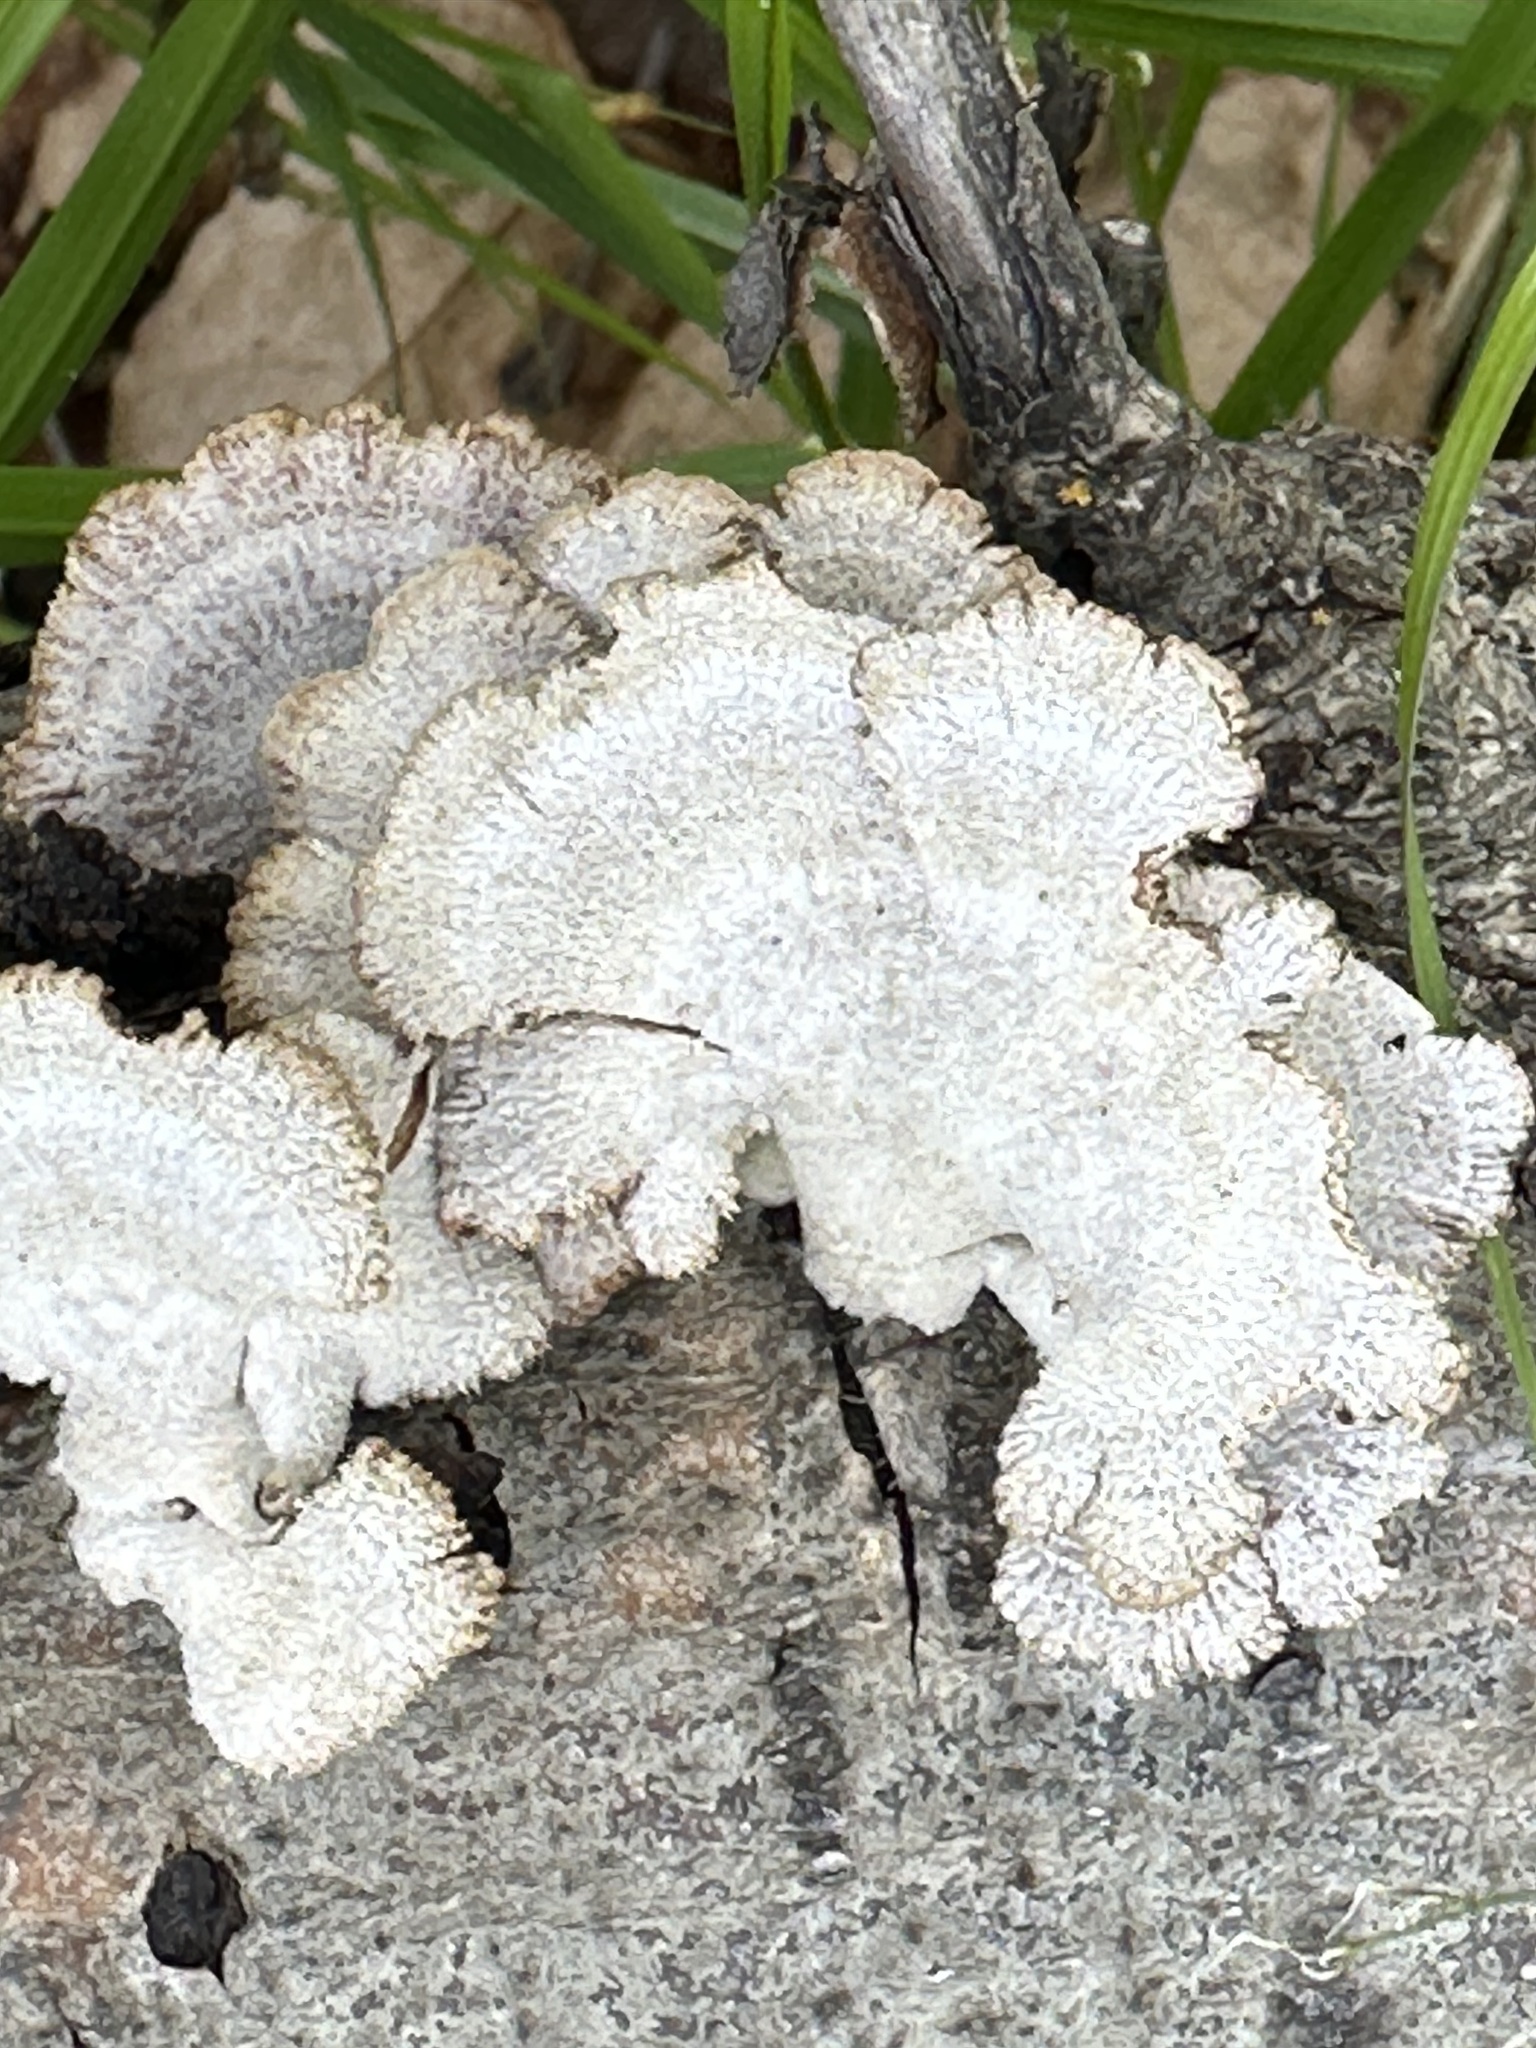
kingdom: Fungi
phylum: Basidiomycota
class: Agaricomycetes
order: Agaricales
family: Schizophyllaceae
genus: Schizophyllum
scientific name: Schizophyllum commune
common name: Common porecrust
